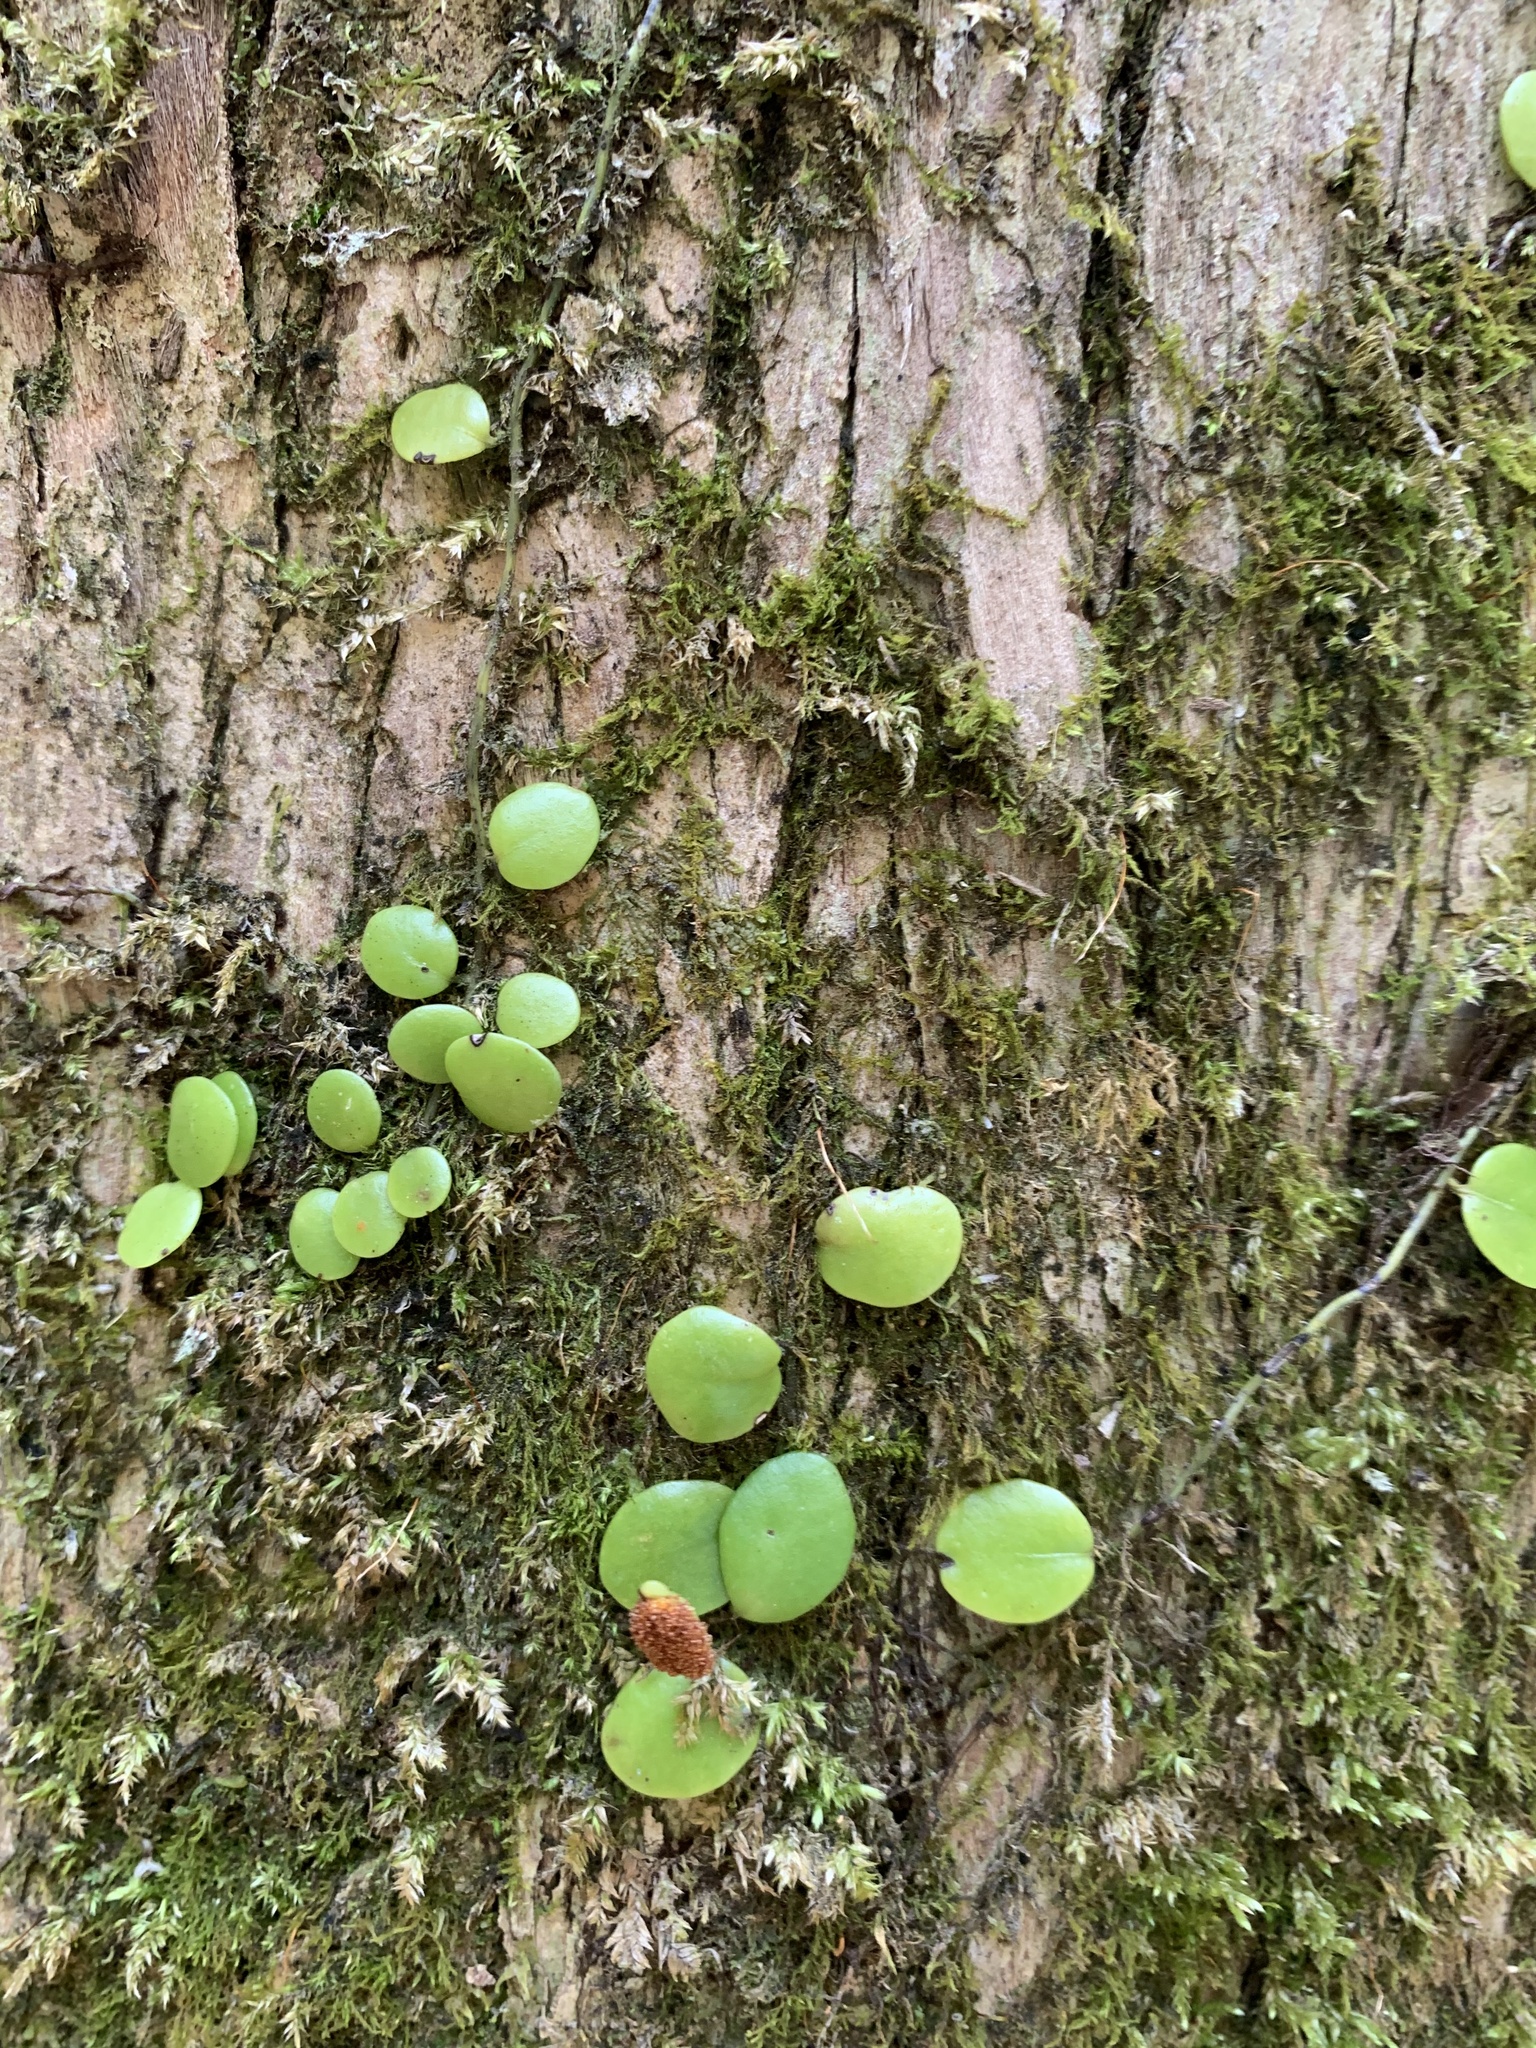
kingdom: Plantae
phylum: Tracheophyta
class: Polypodiopsida
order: Polypodiales
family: Polypodiaceae
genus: Lepisorus
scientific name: Lepisorus microphyllus
